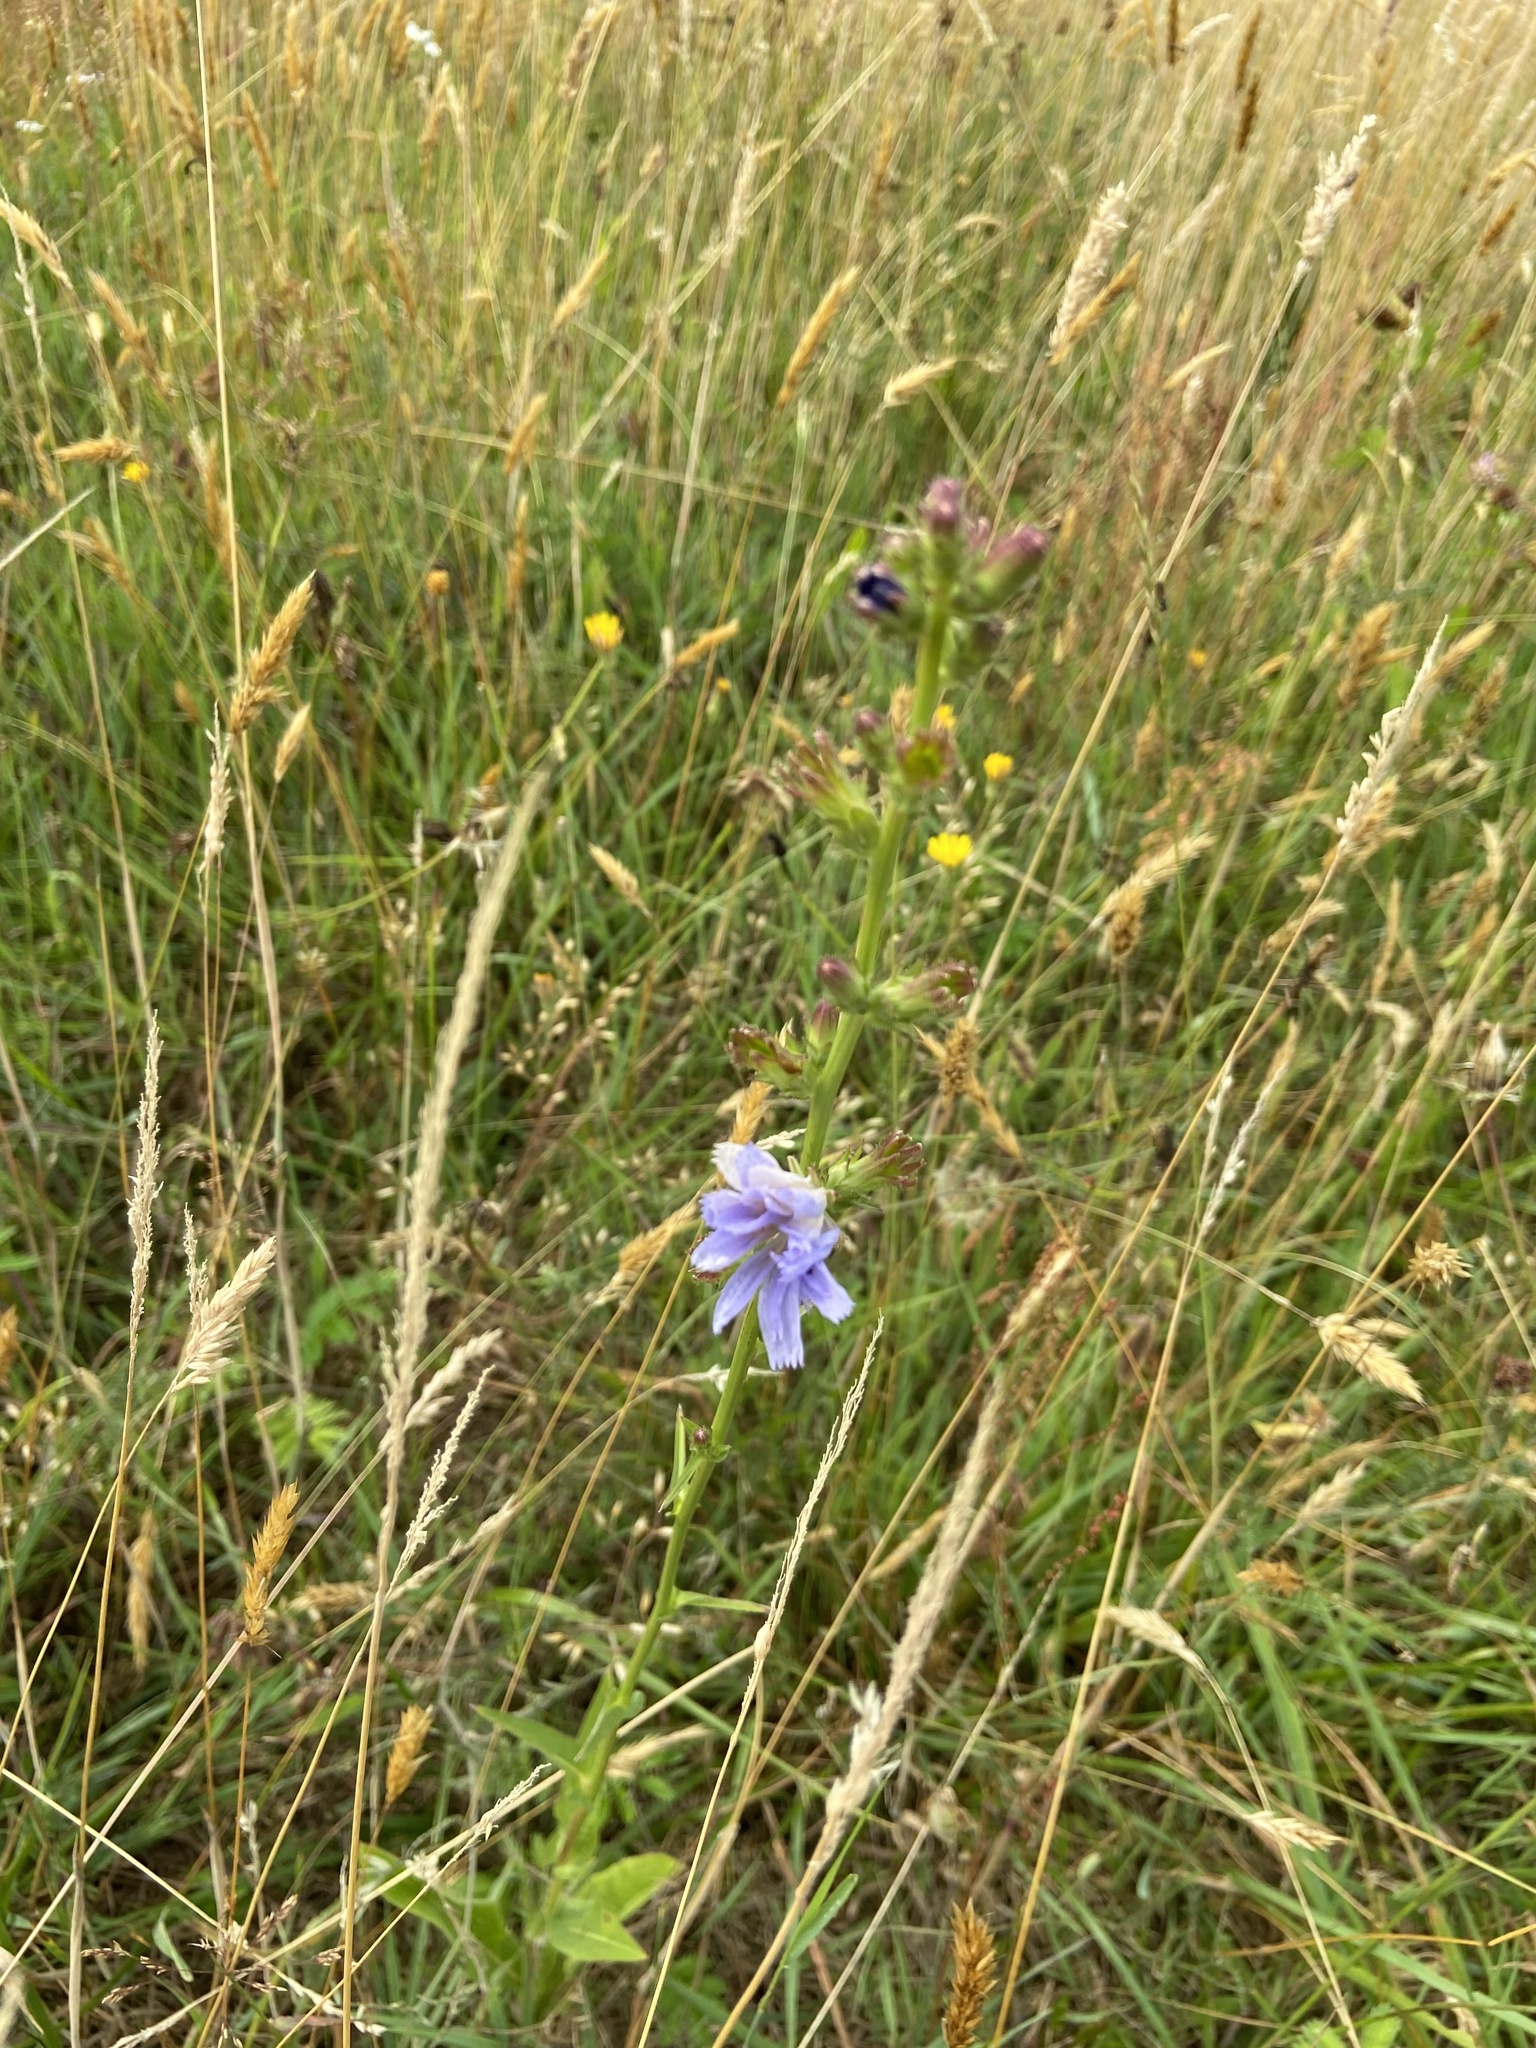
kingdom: Plantae
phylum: Tracheophyta
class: Magnoliopsida
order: Asterales
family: Asteraceae
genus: Cichorium
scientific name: Cichorium intybus
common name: Chicory
